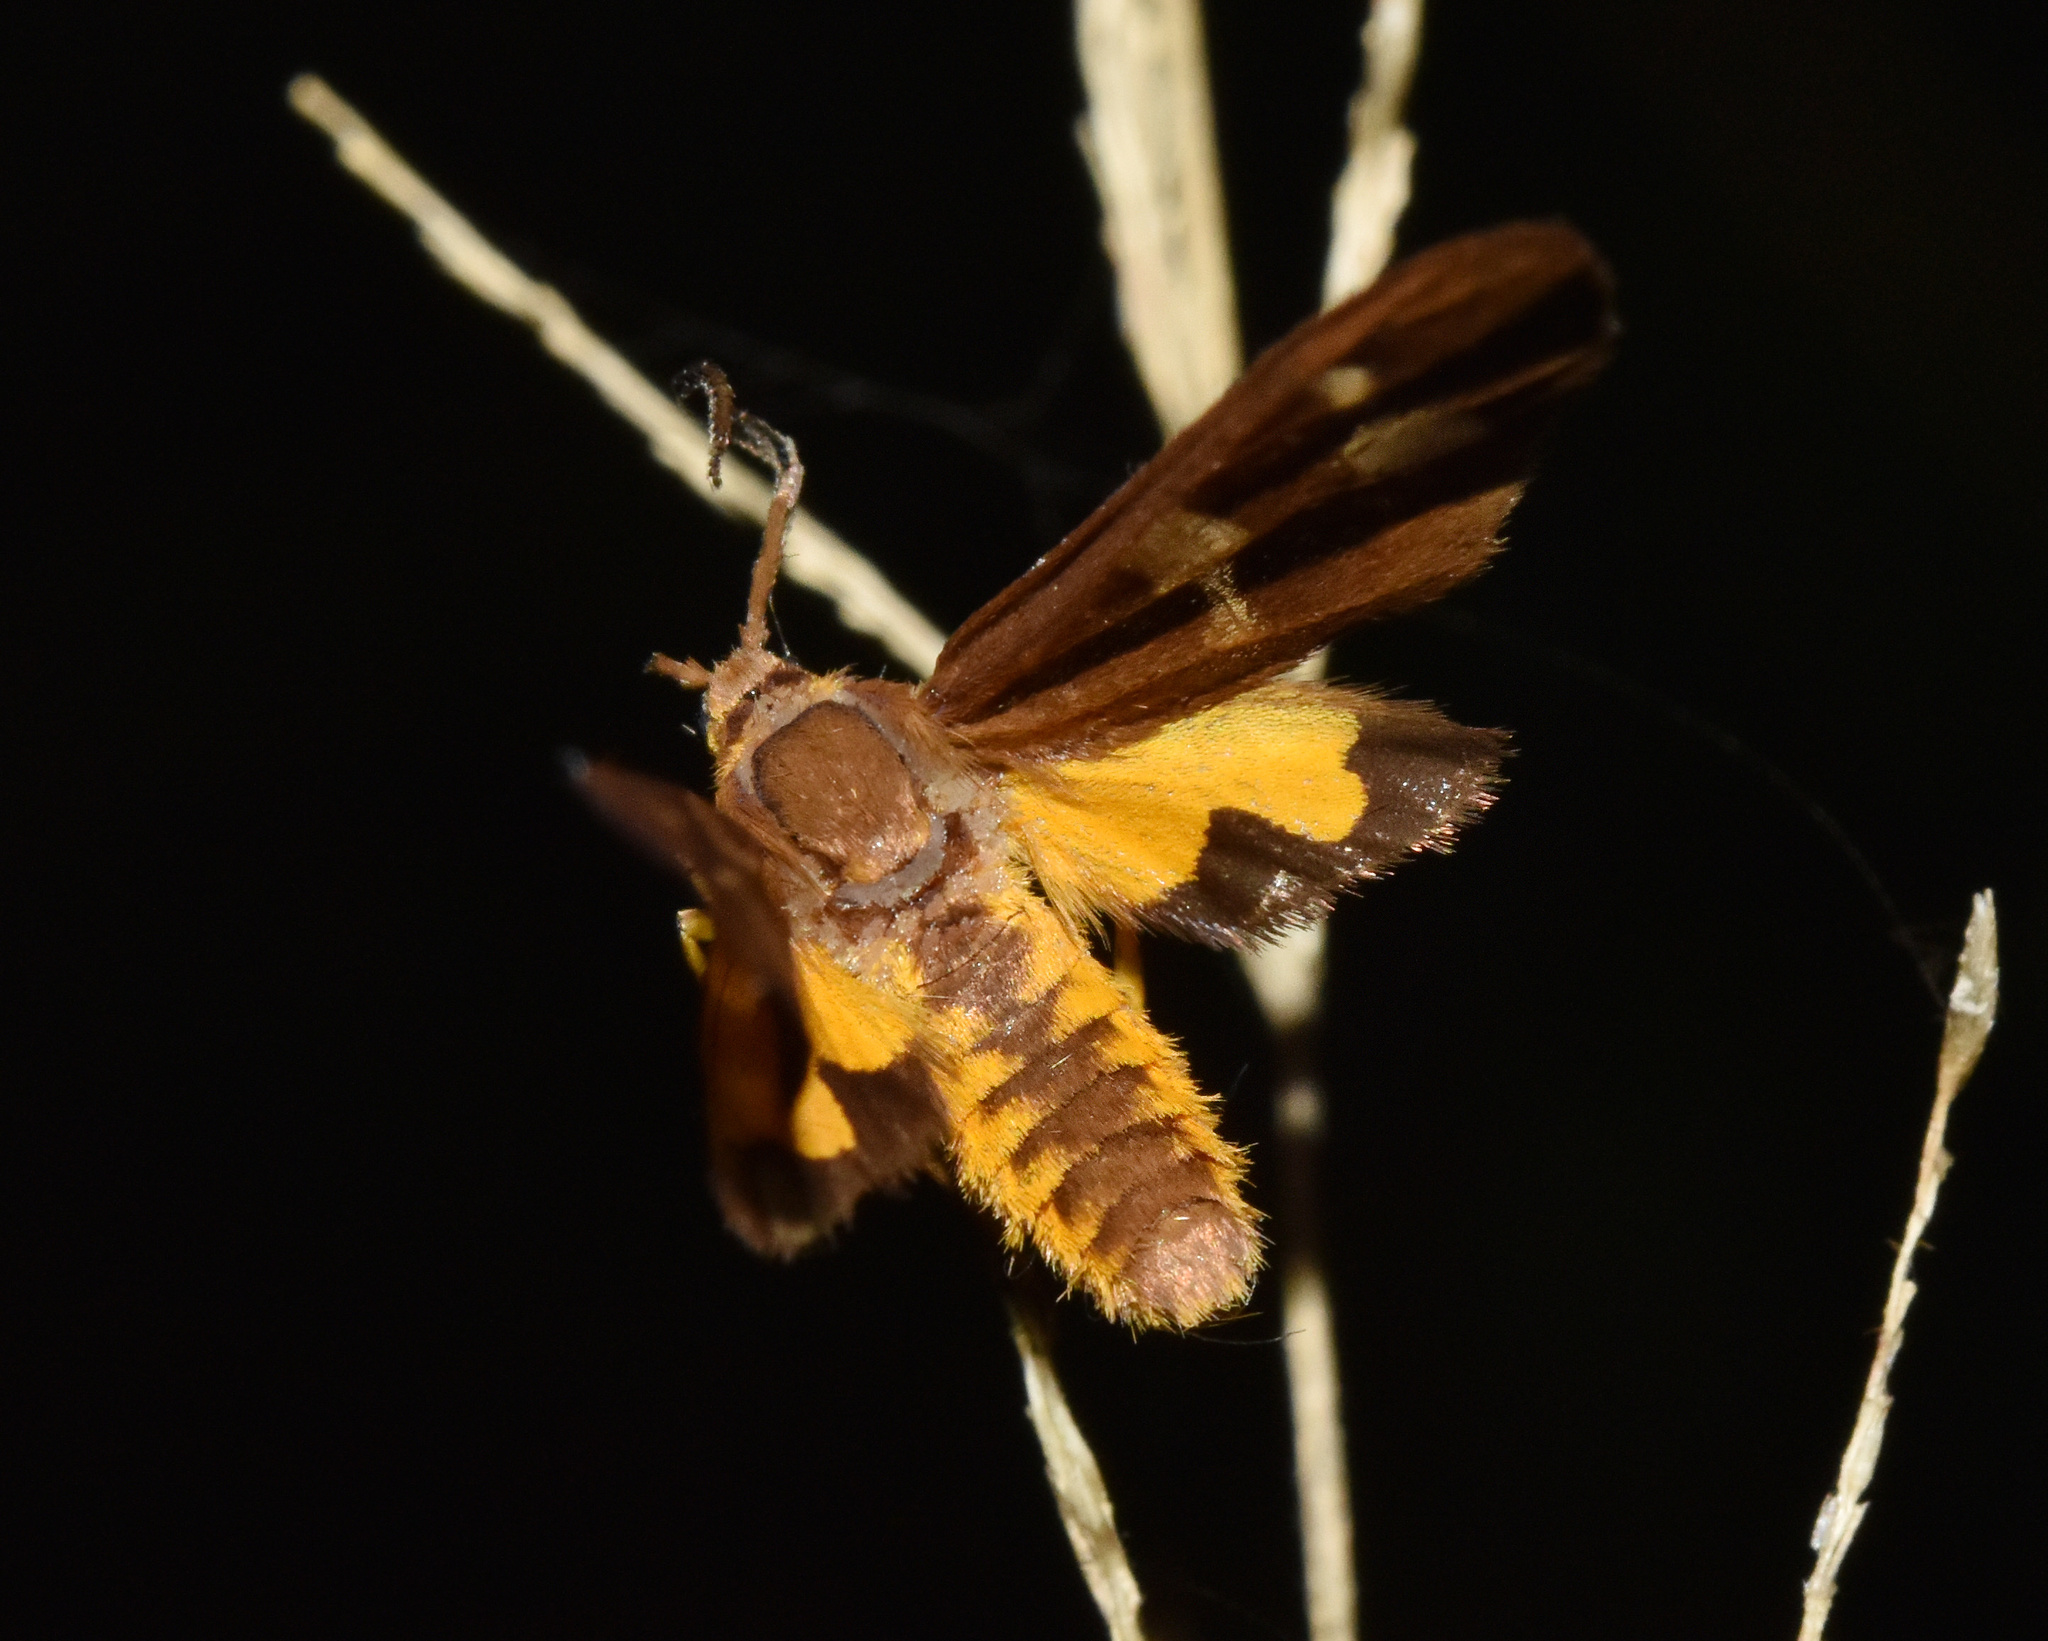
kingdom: Animalia
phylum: Arthropoda
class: Insecta
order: Lepidoptera
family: Erebidae
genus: Pseudonaclia
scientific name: Pseudonaclia puella
